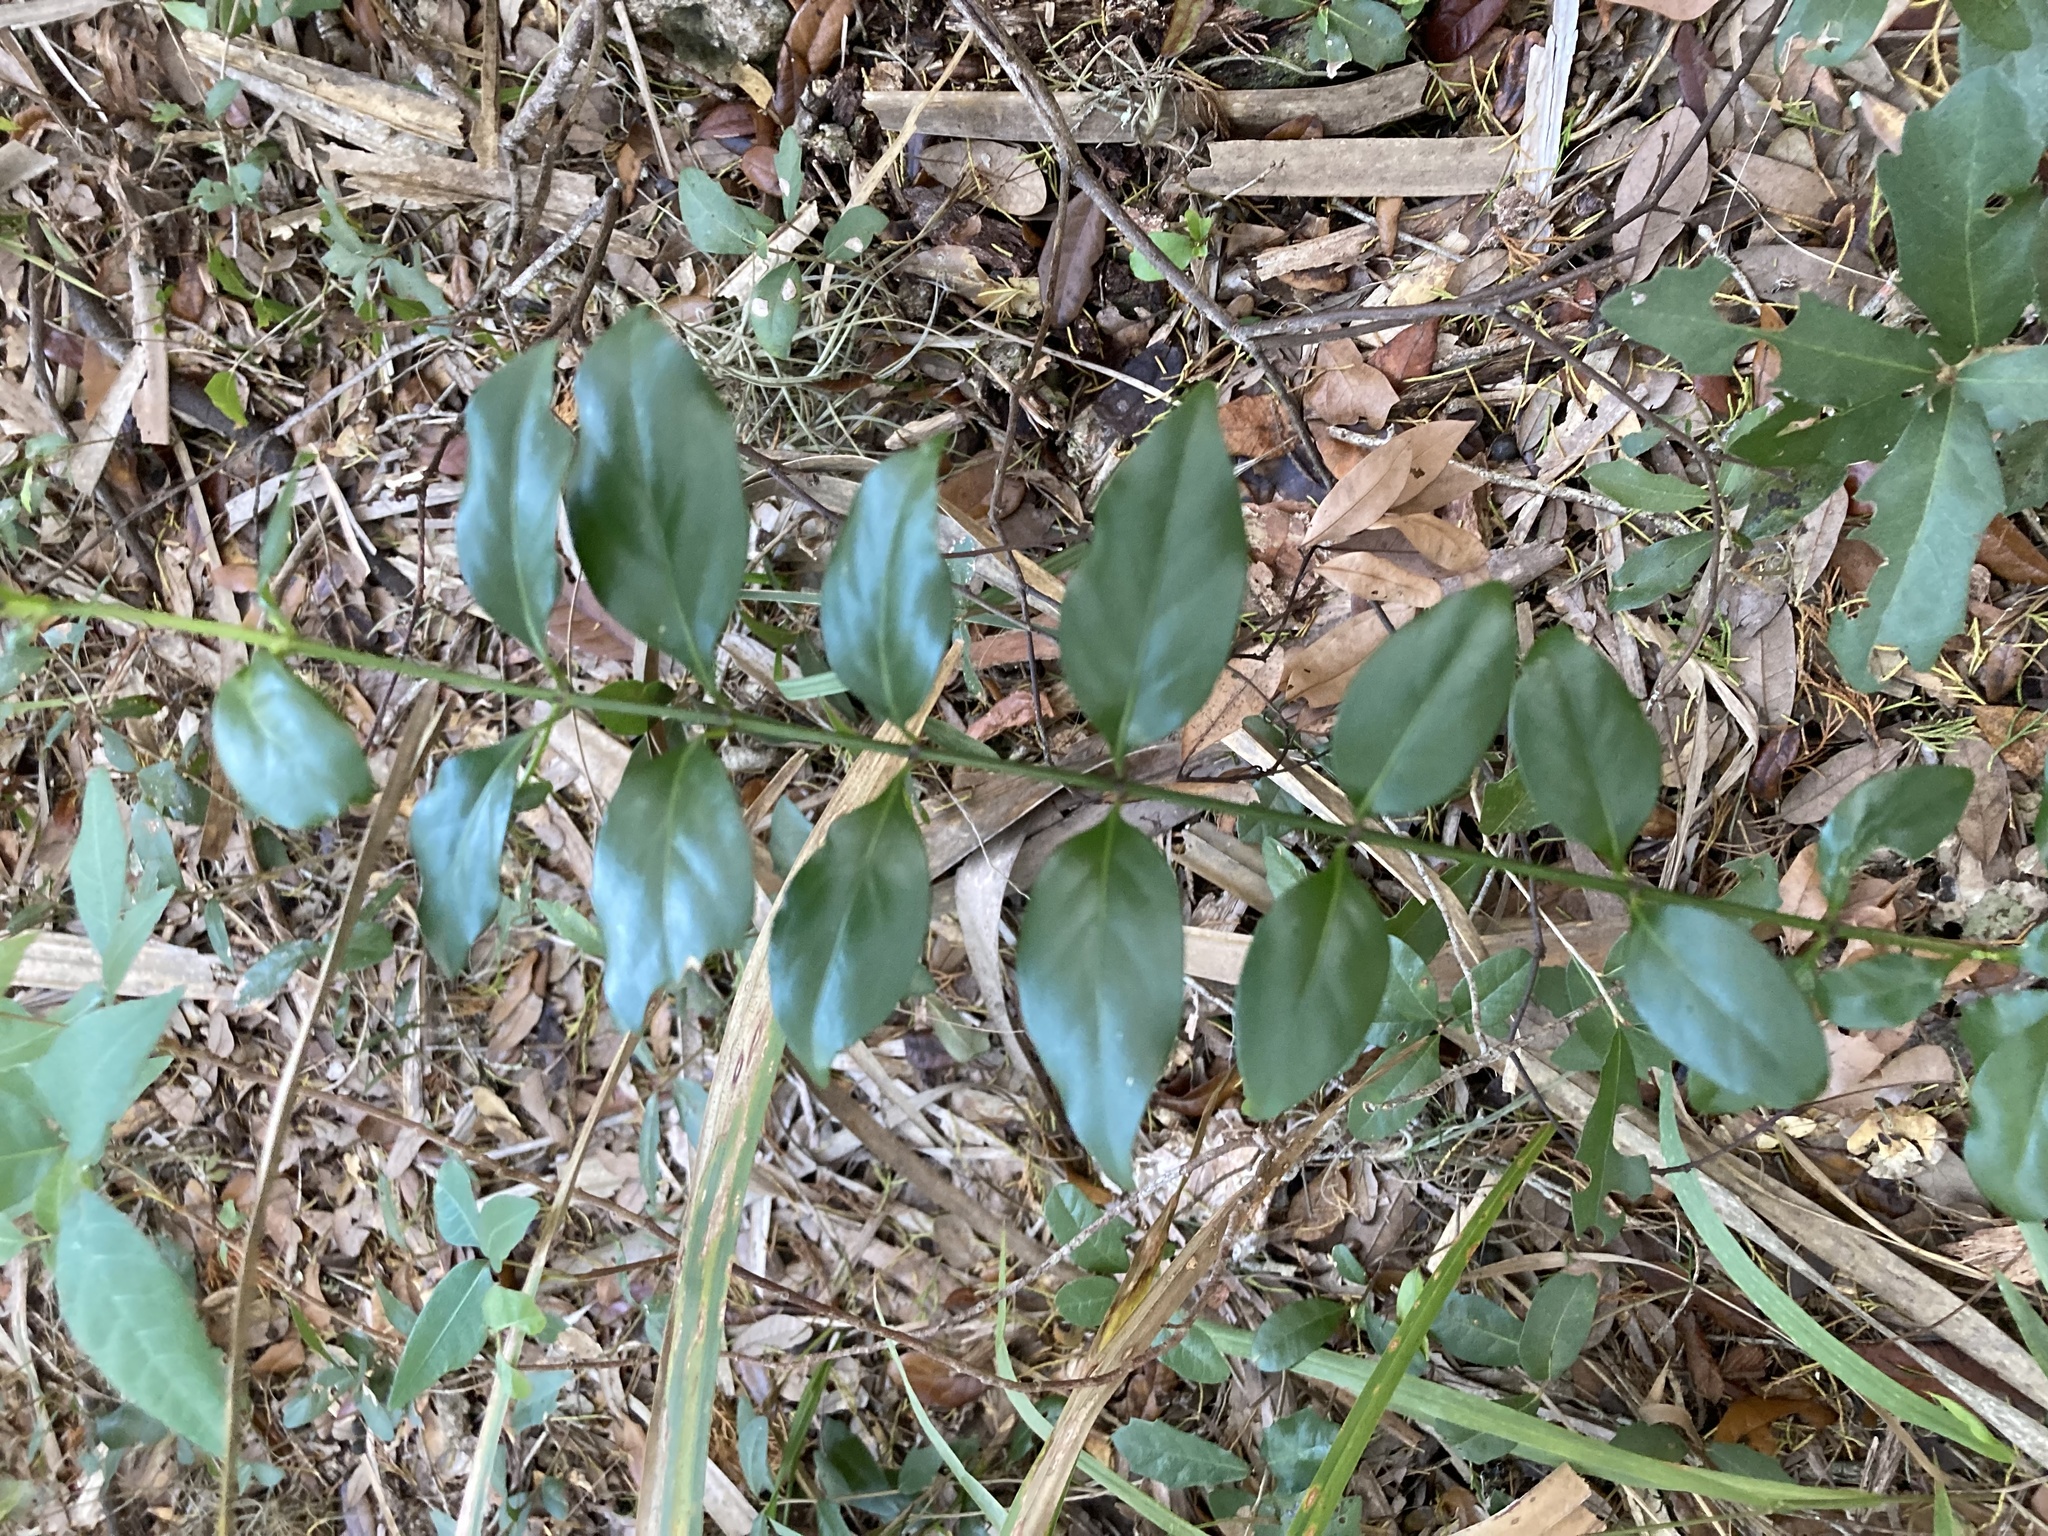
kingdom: Plantae
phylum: Tracheophyta
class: Magnoliopsida
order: Gentianales
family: Rubiaceae
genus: Chiococca
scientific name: Chiococca alba
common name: Snowberry
